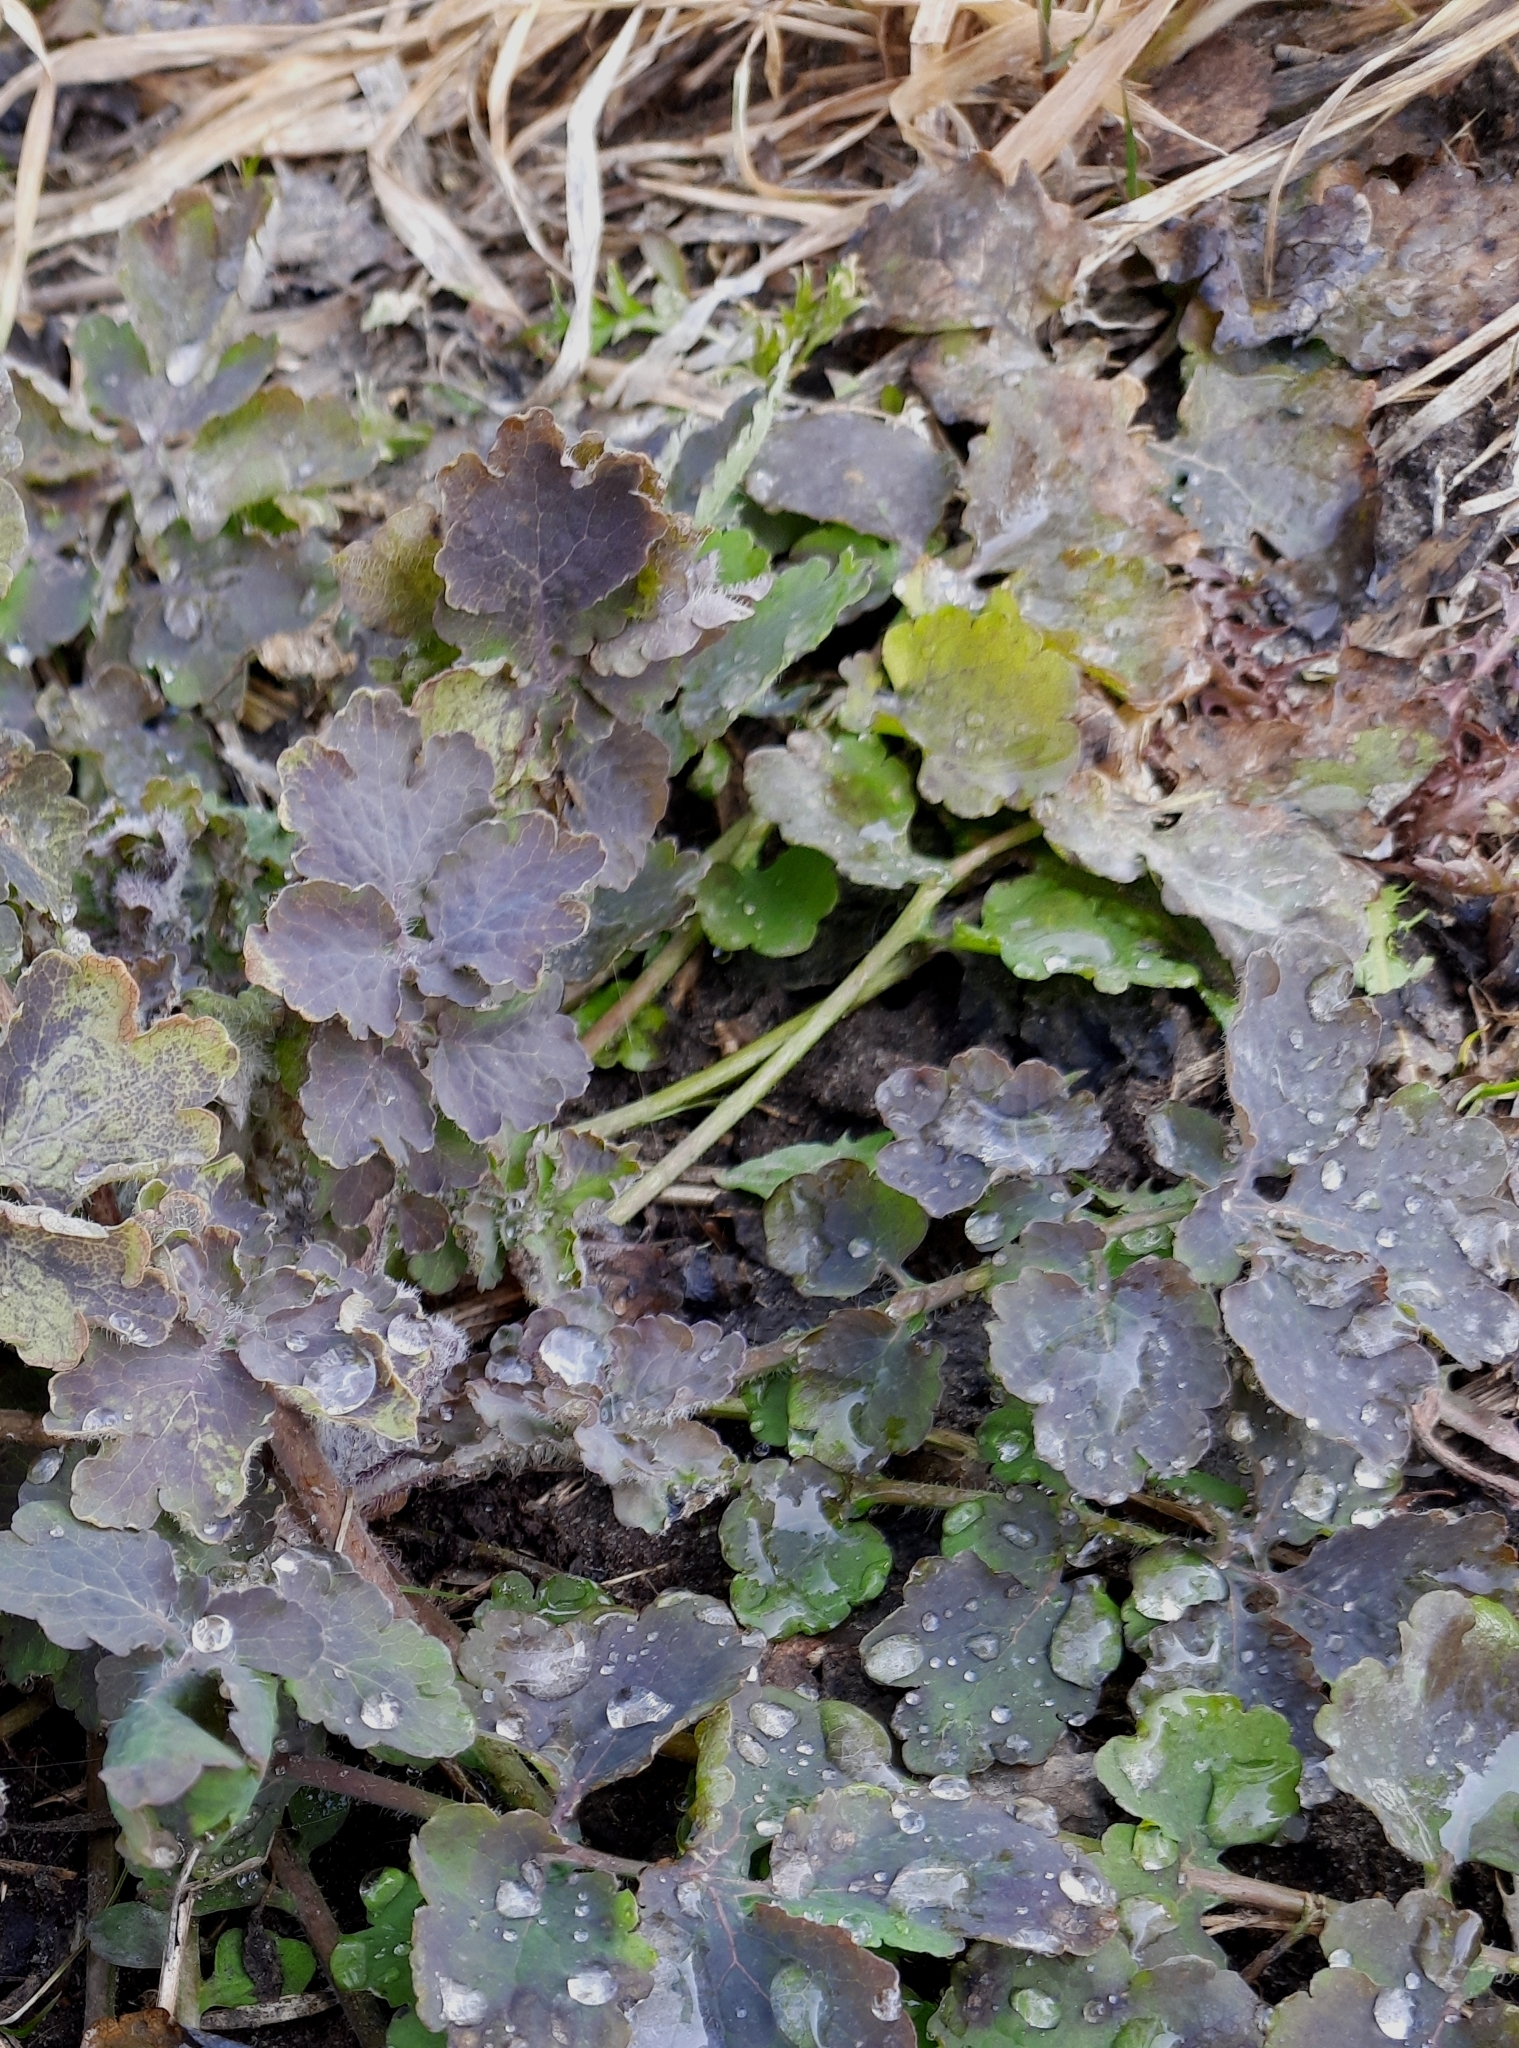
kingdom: Plantae
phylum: Tracheophyta
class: Magnoliopsida
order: Ranunculales
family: Papaveraceae
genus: Chelidonium
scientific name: Chelidonium majus
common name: Greater celandine
